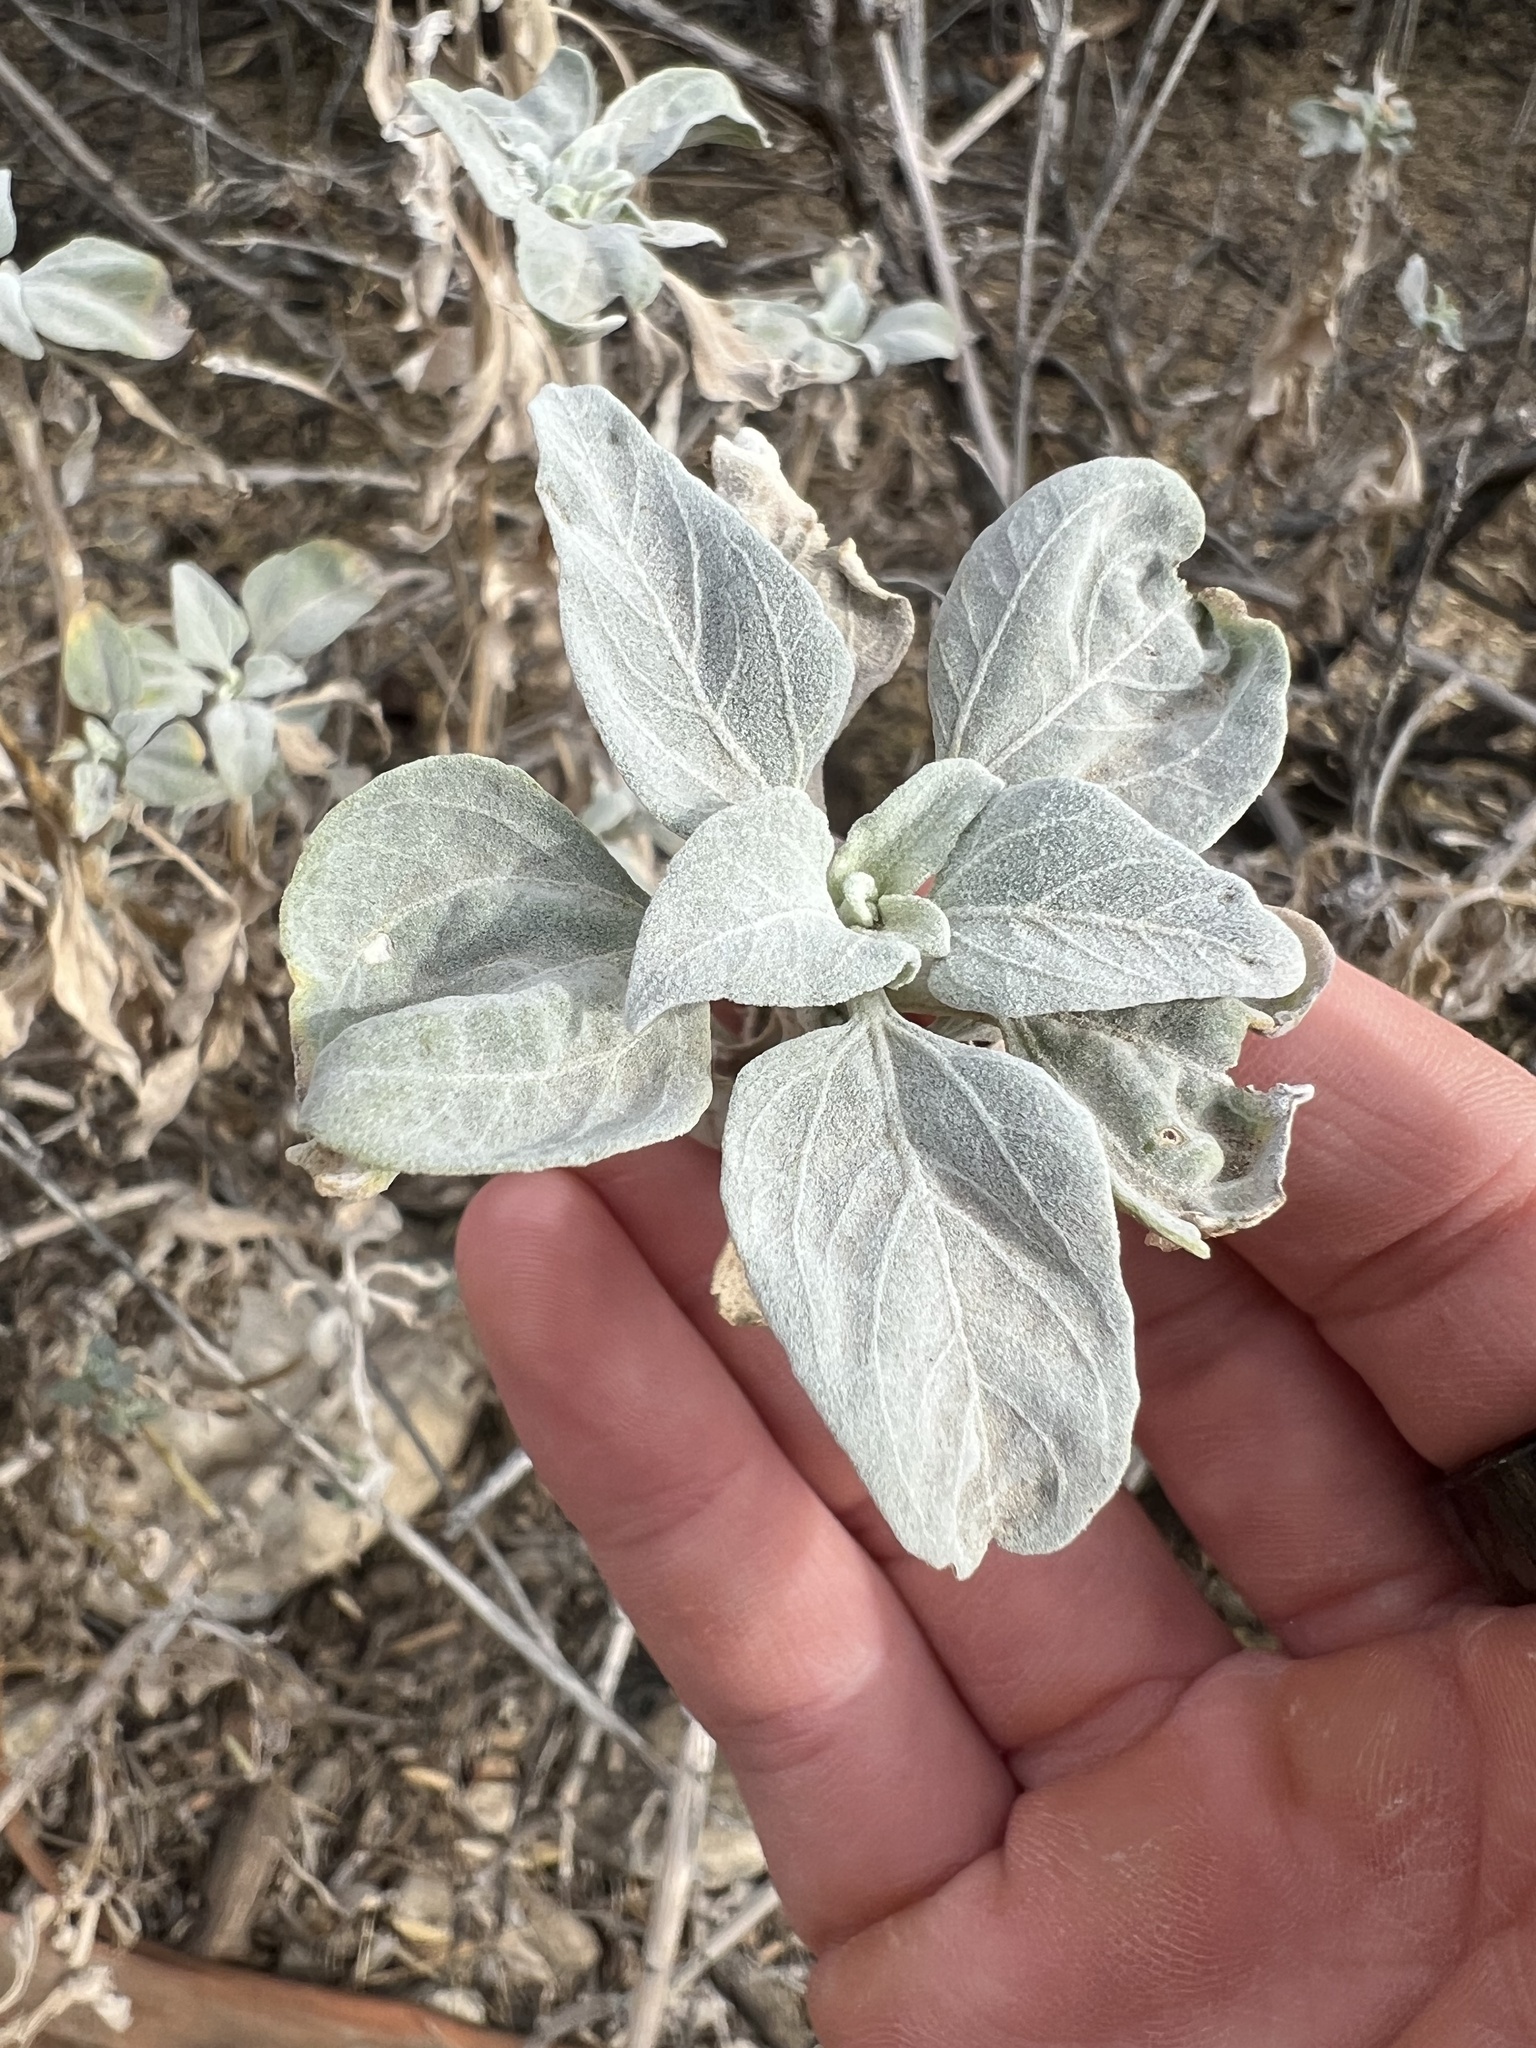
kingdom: Plantae
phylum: Tracheophyta
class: Magnoliopsida
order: Asterales
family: Asteraceae
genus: Encelia
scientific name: Encelia farinosa
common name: Brittlebush
